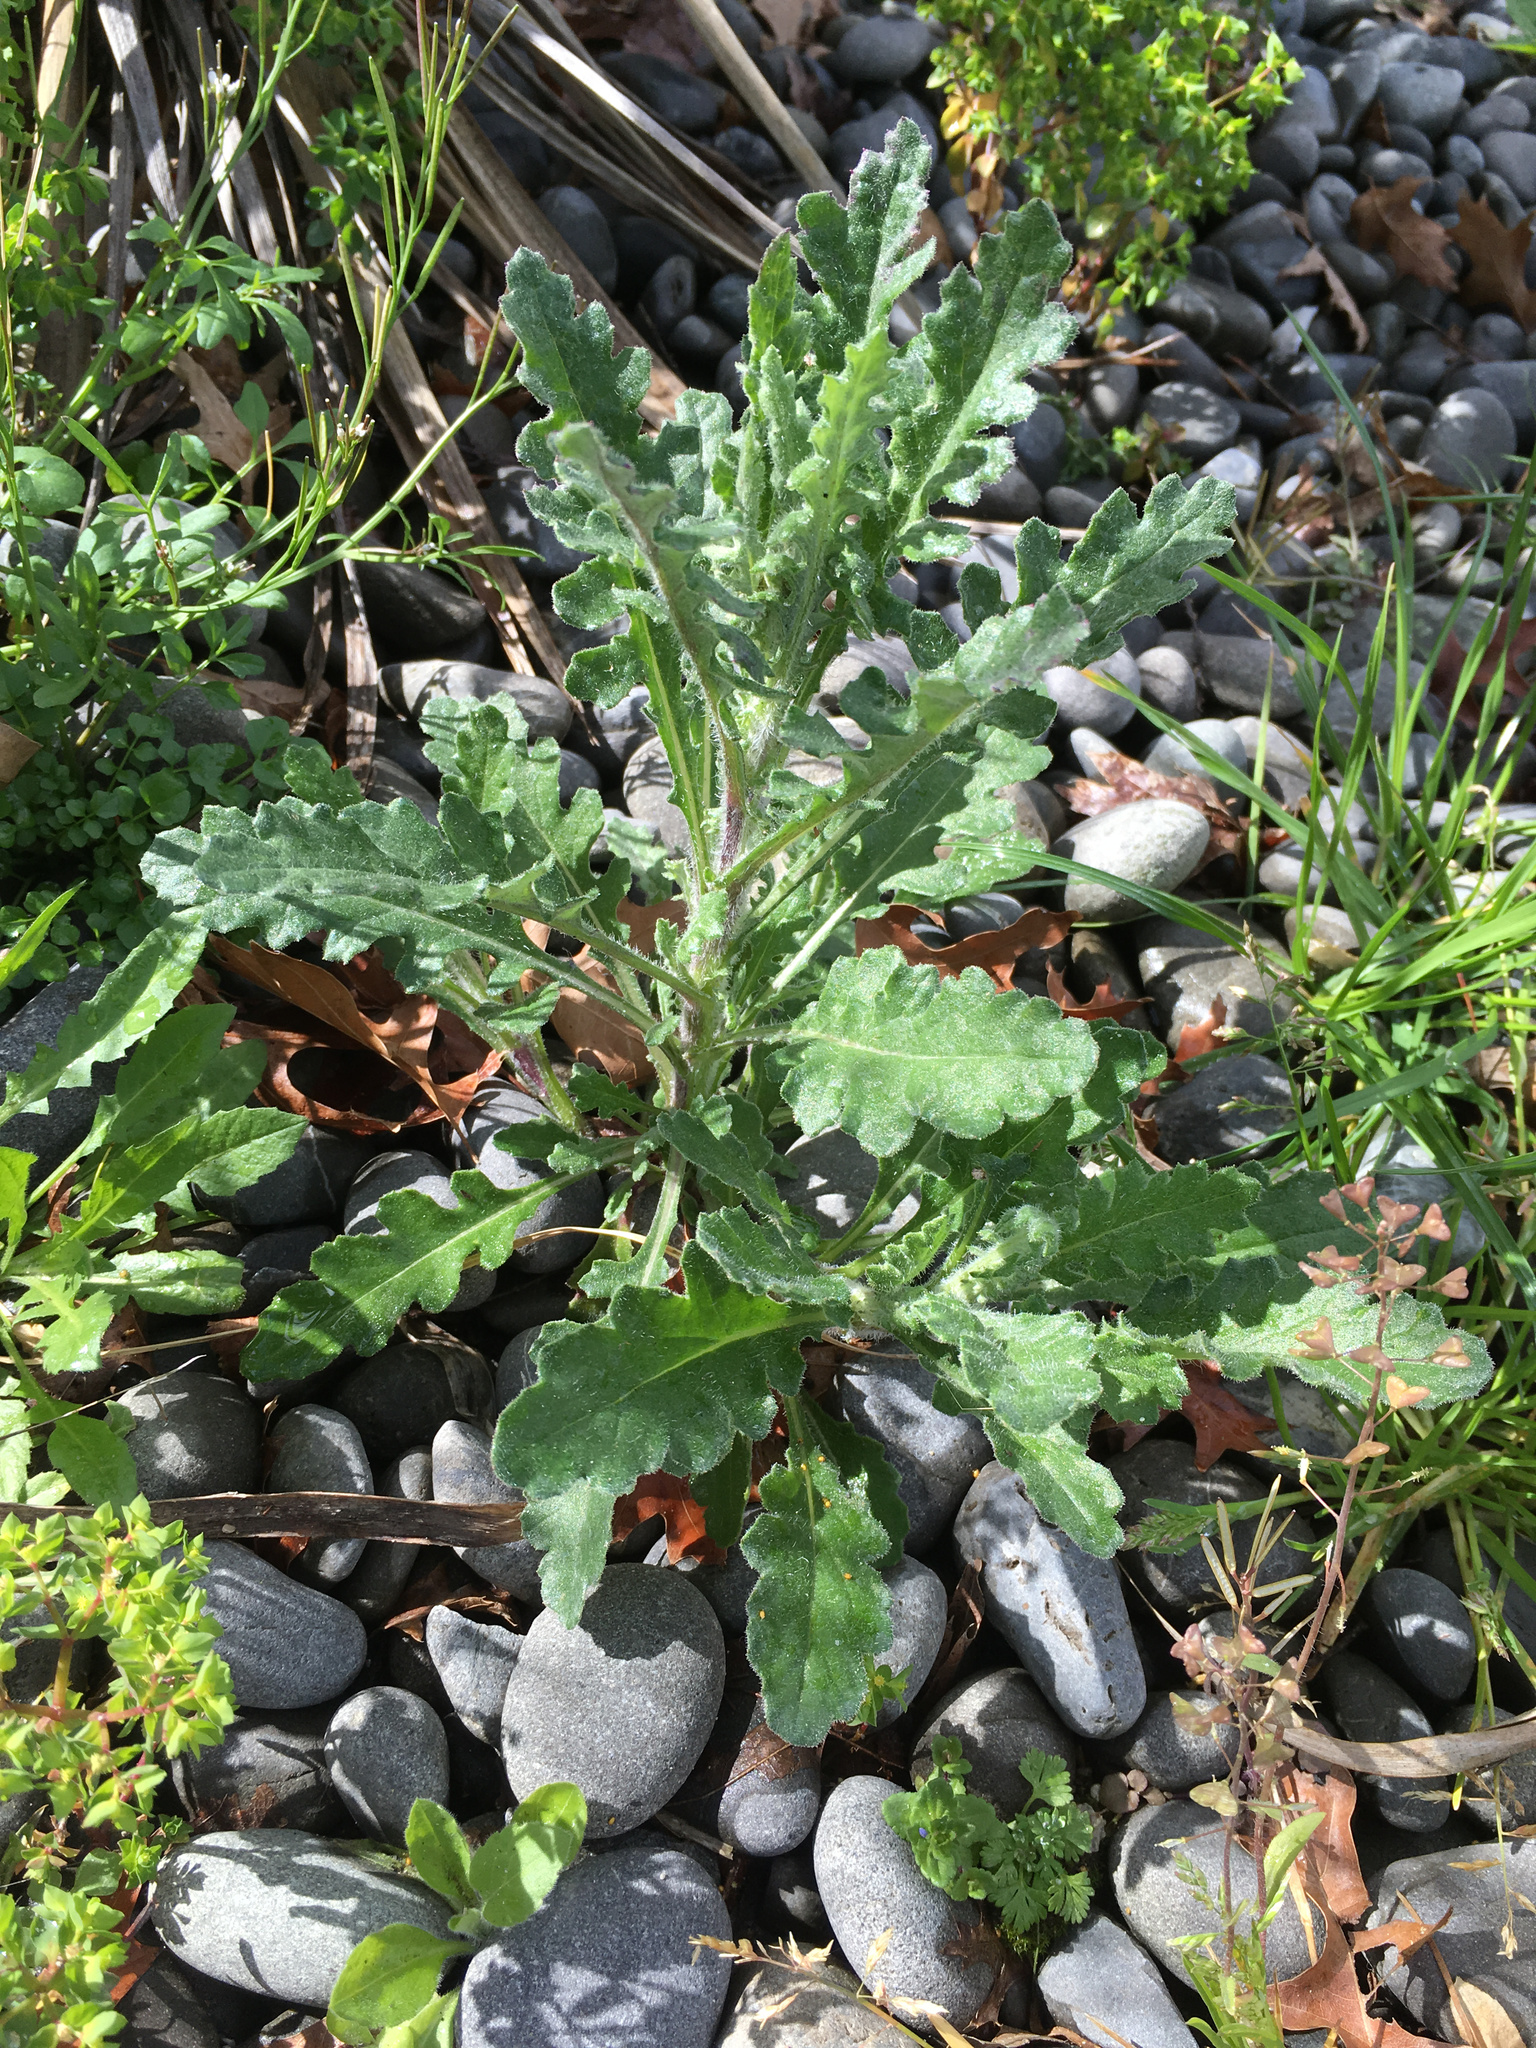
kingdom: Plantae
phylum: Tracheophyta
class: Magnoliopsida
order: Asterales
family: Asteraceae
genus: Senecio
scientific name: Senecio glomeratus
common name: Cutleaf burnweed
